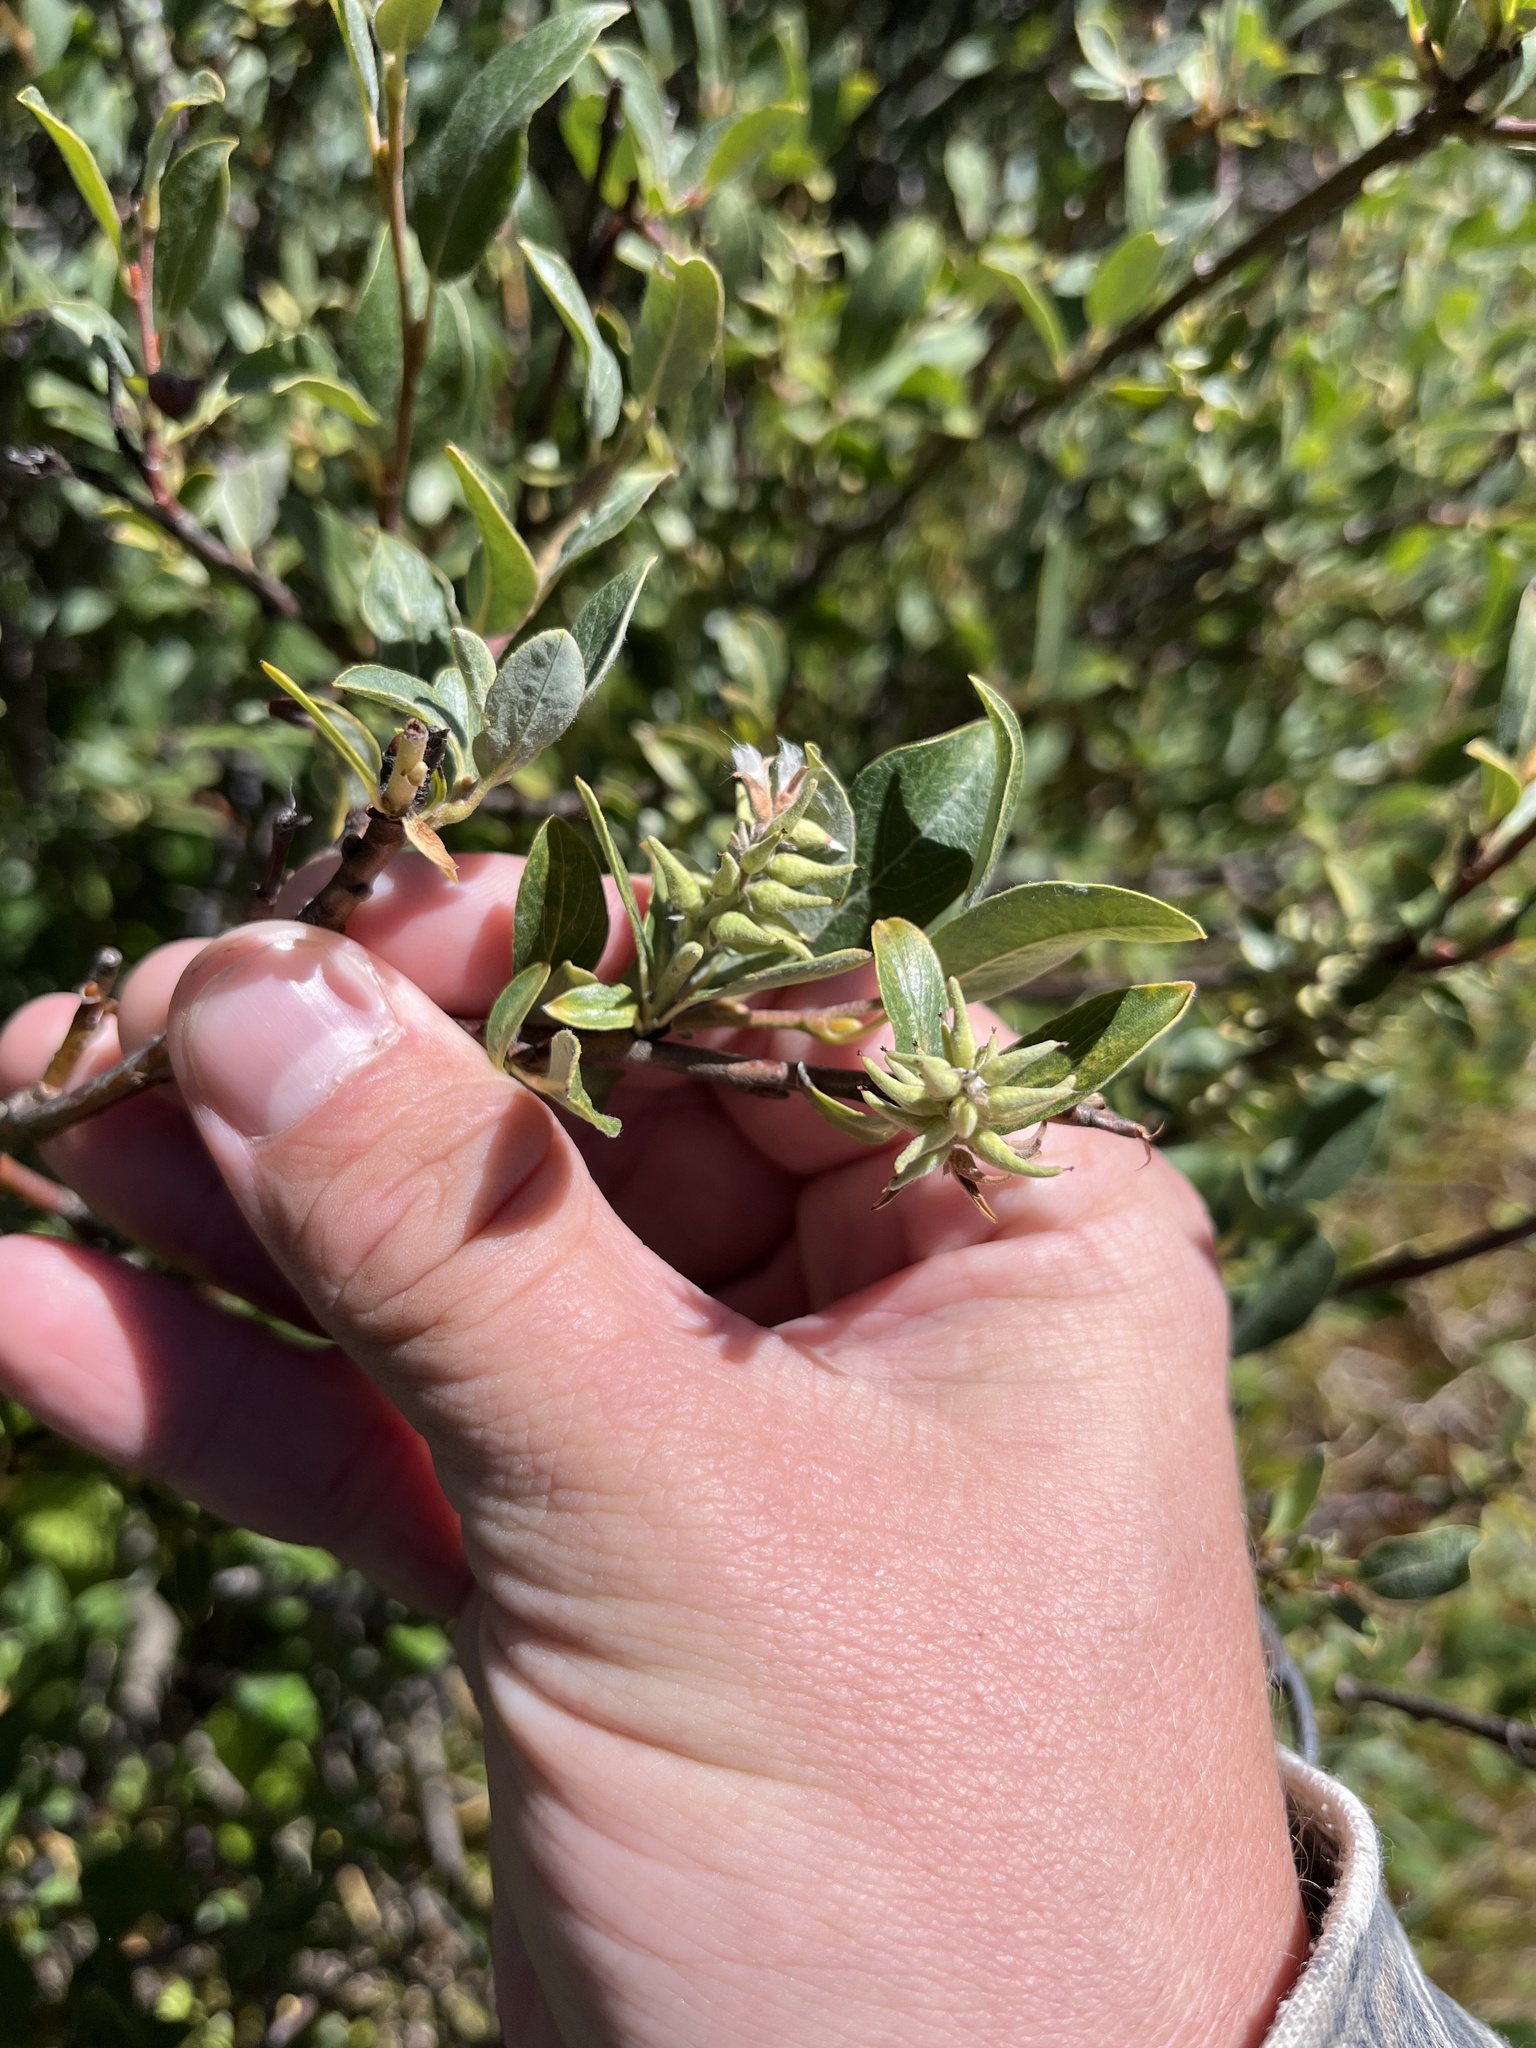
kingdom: Plantae
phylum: Tracheophyta
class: Magnoliopsida
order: Malpighiales
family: Salicaceae
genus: Salix
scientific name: Salix glauca
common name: Glaucous willow
